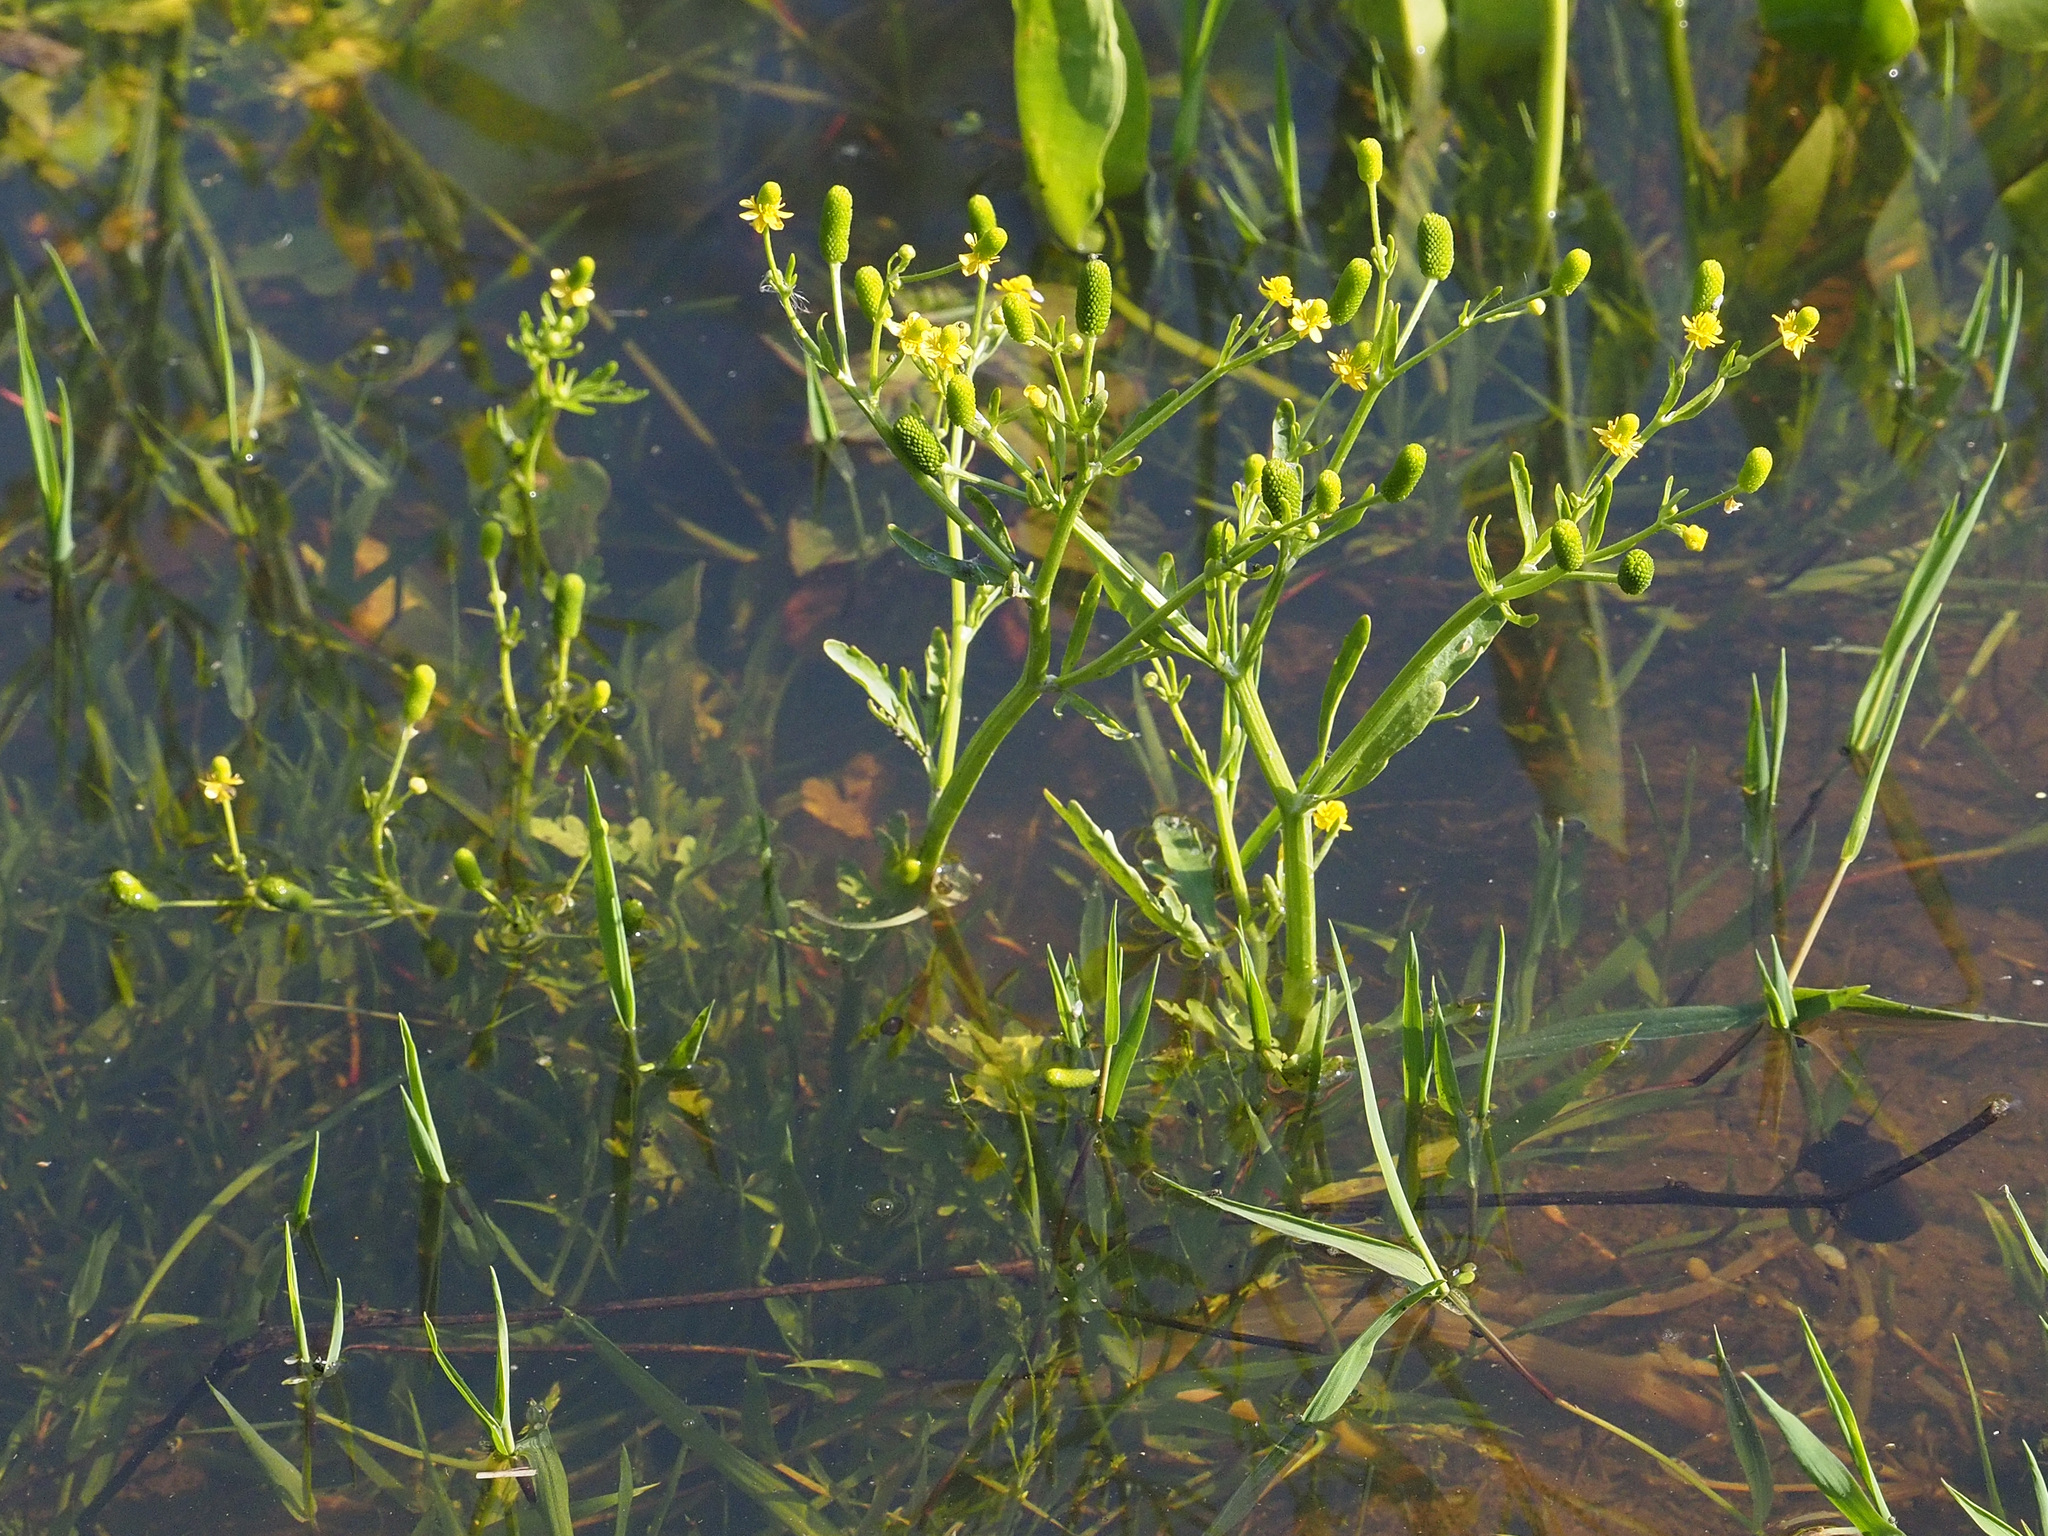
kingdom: Plantae
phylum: Tracheophyta
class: Magnoliopsida
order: Ranunculales
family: Ranunculaceae
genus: Ranunculus
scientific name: Ranunculus sceleratus
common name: Celery-leaved buttercup
